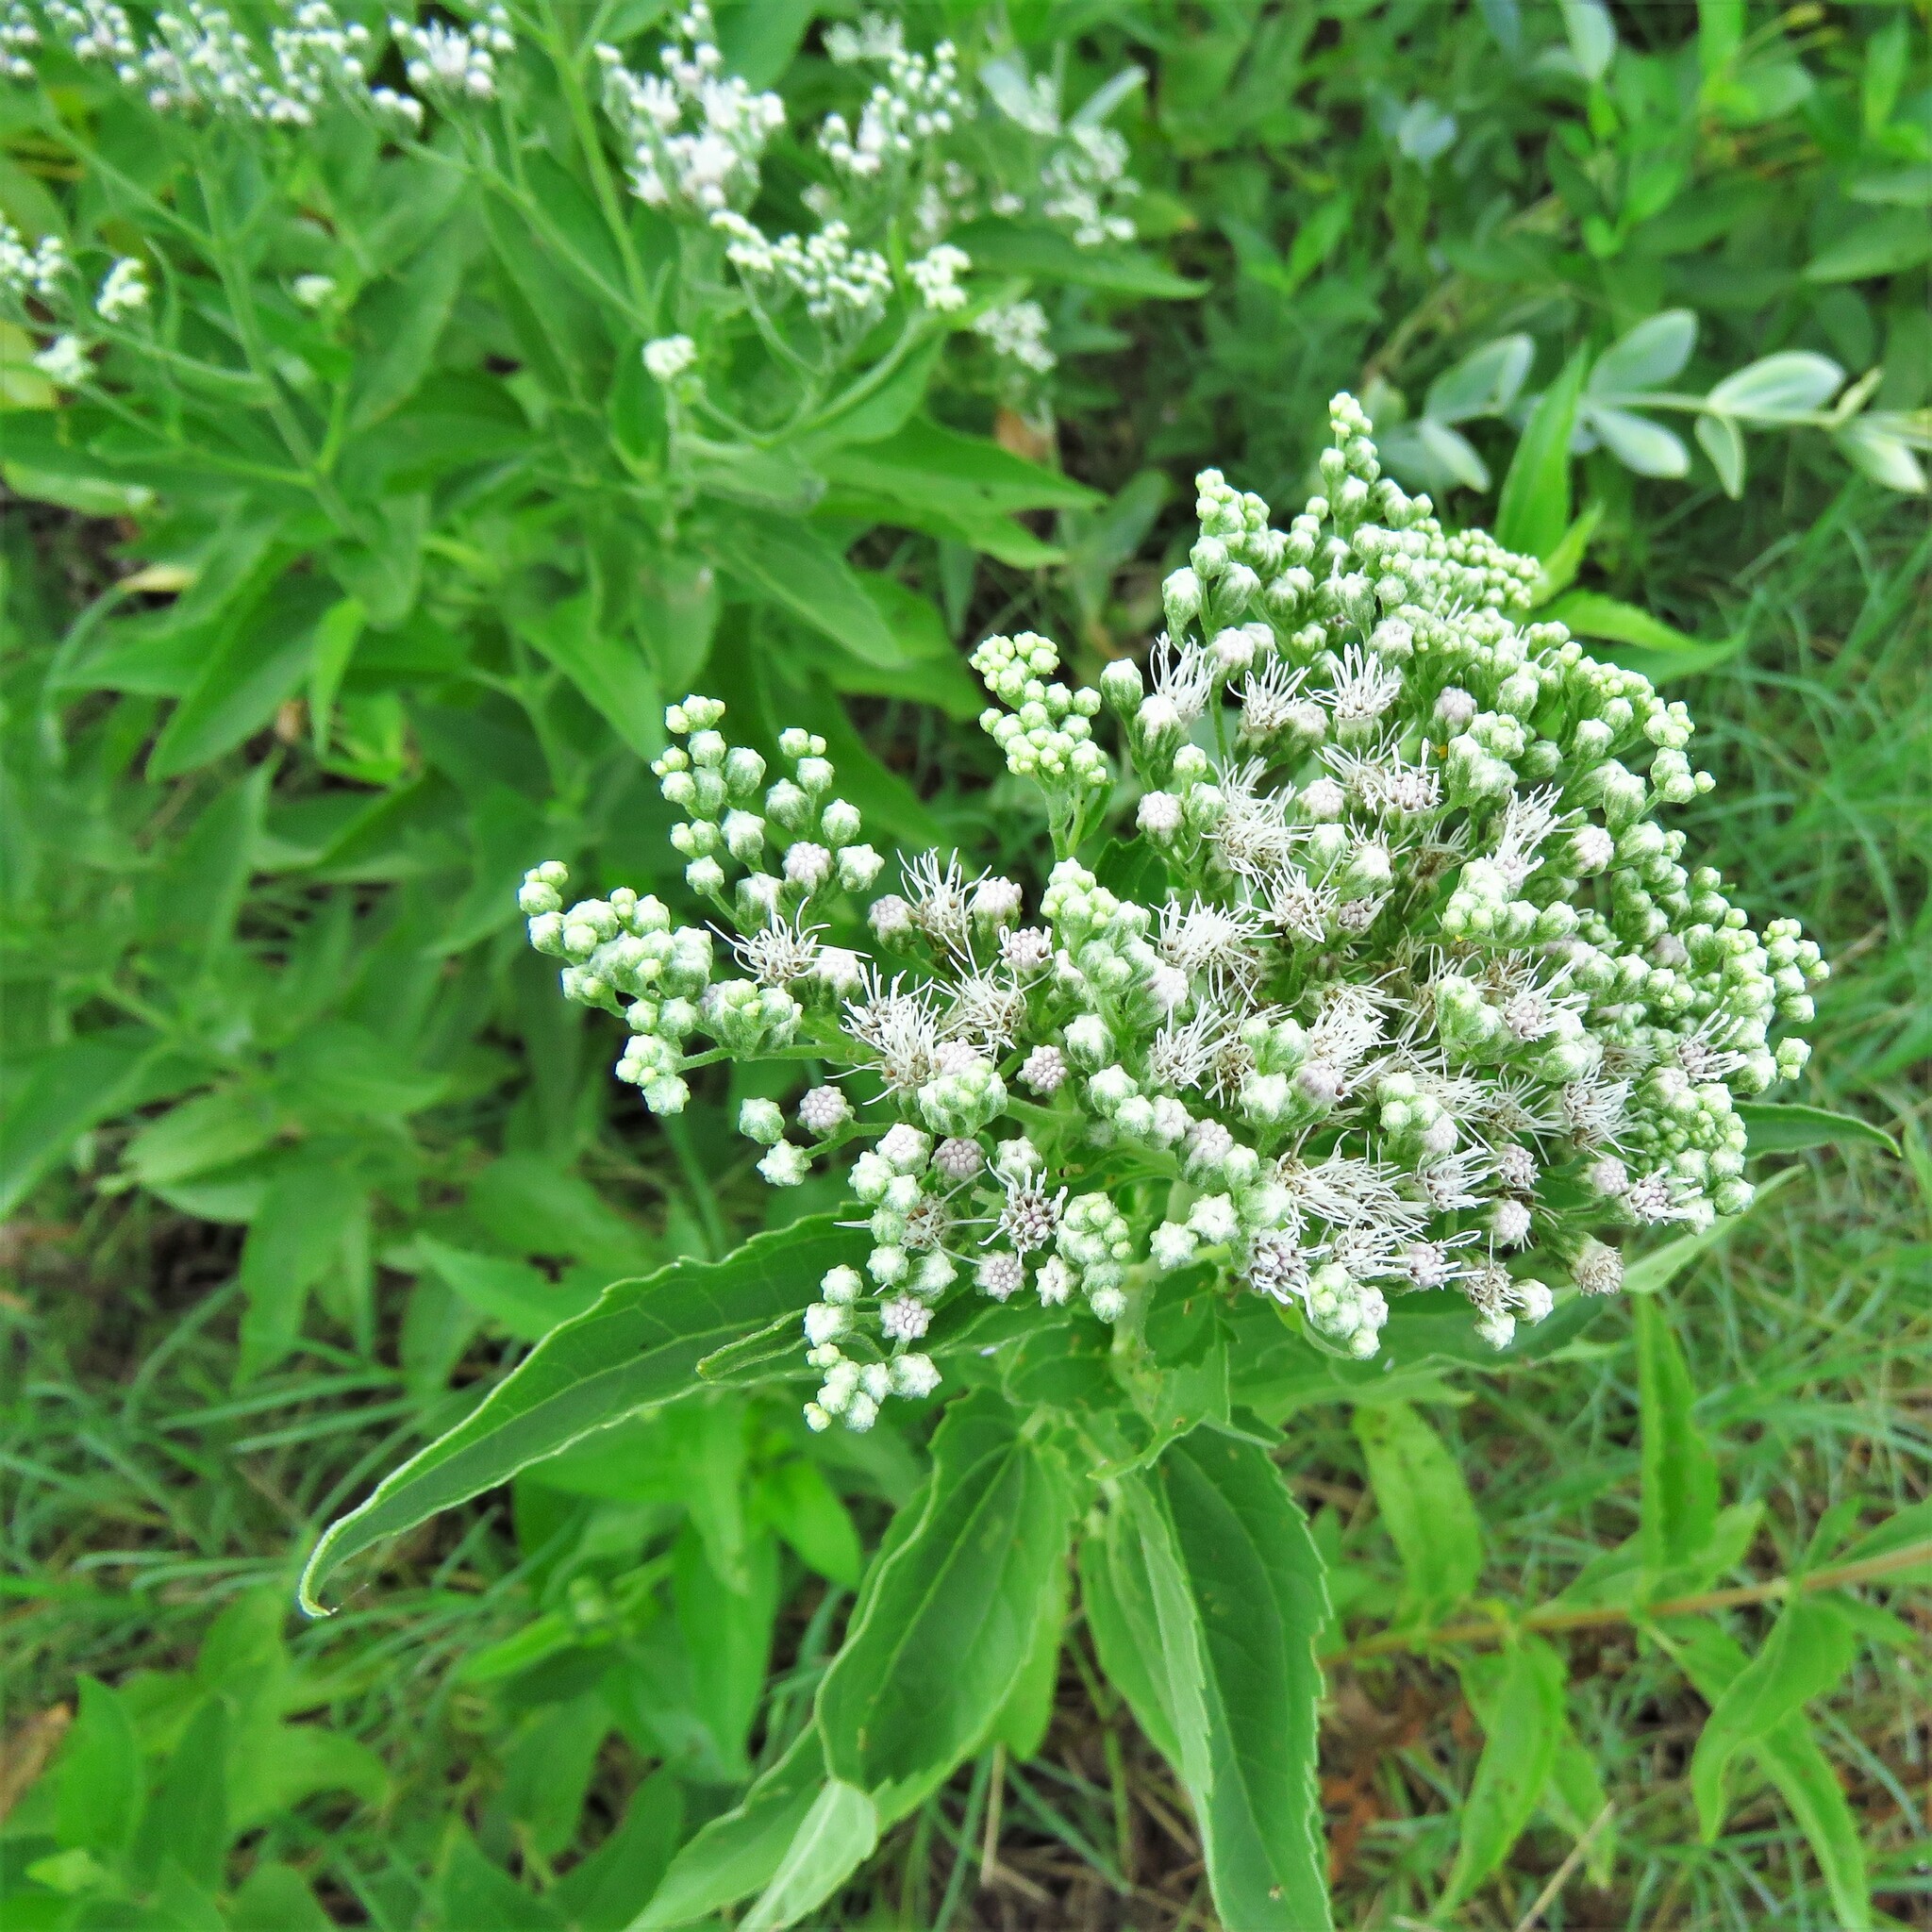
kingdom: Plantae
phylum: Tracheophyta
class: Magnoliopsida
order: Asterales
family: Asteraceae
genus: Eupatorium
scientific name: Eupatorium serotinum
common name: Late boneset
